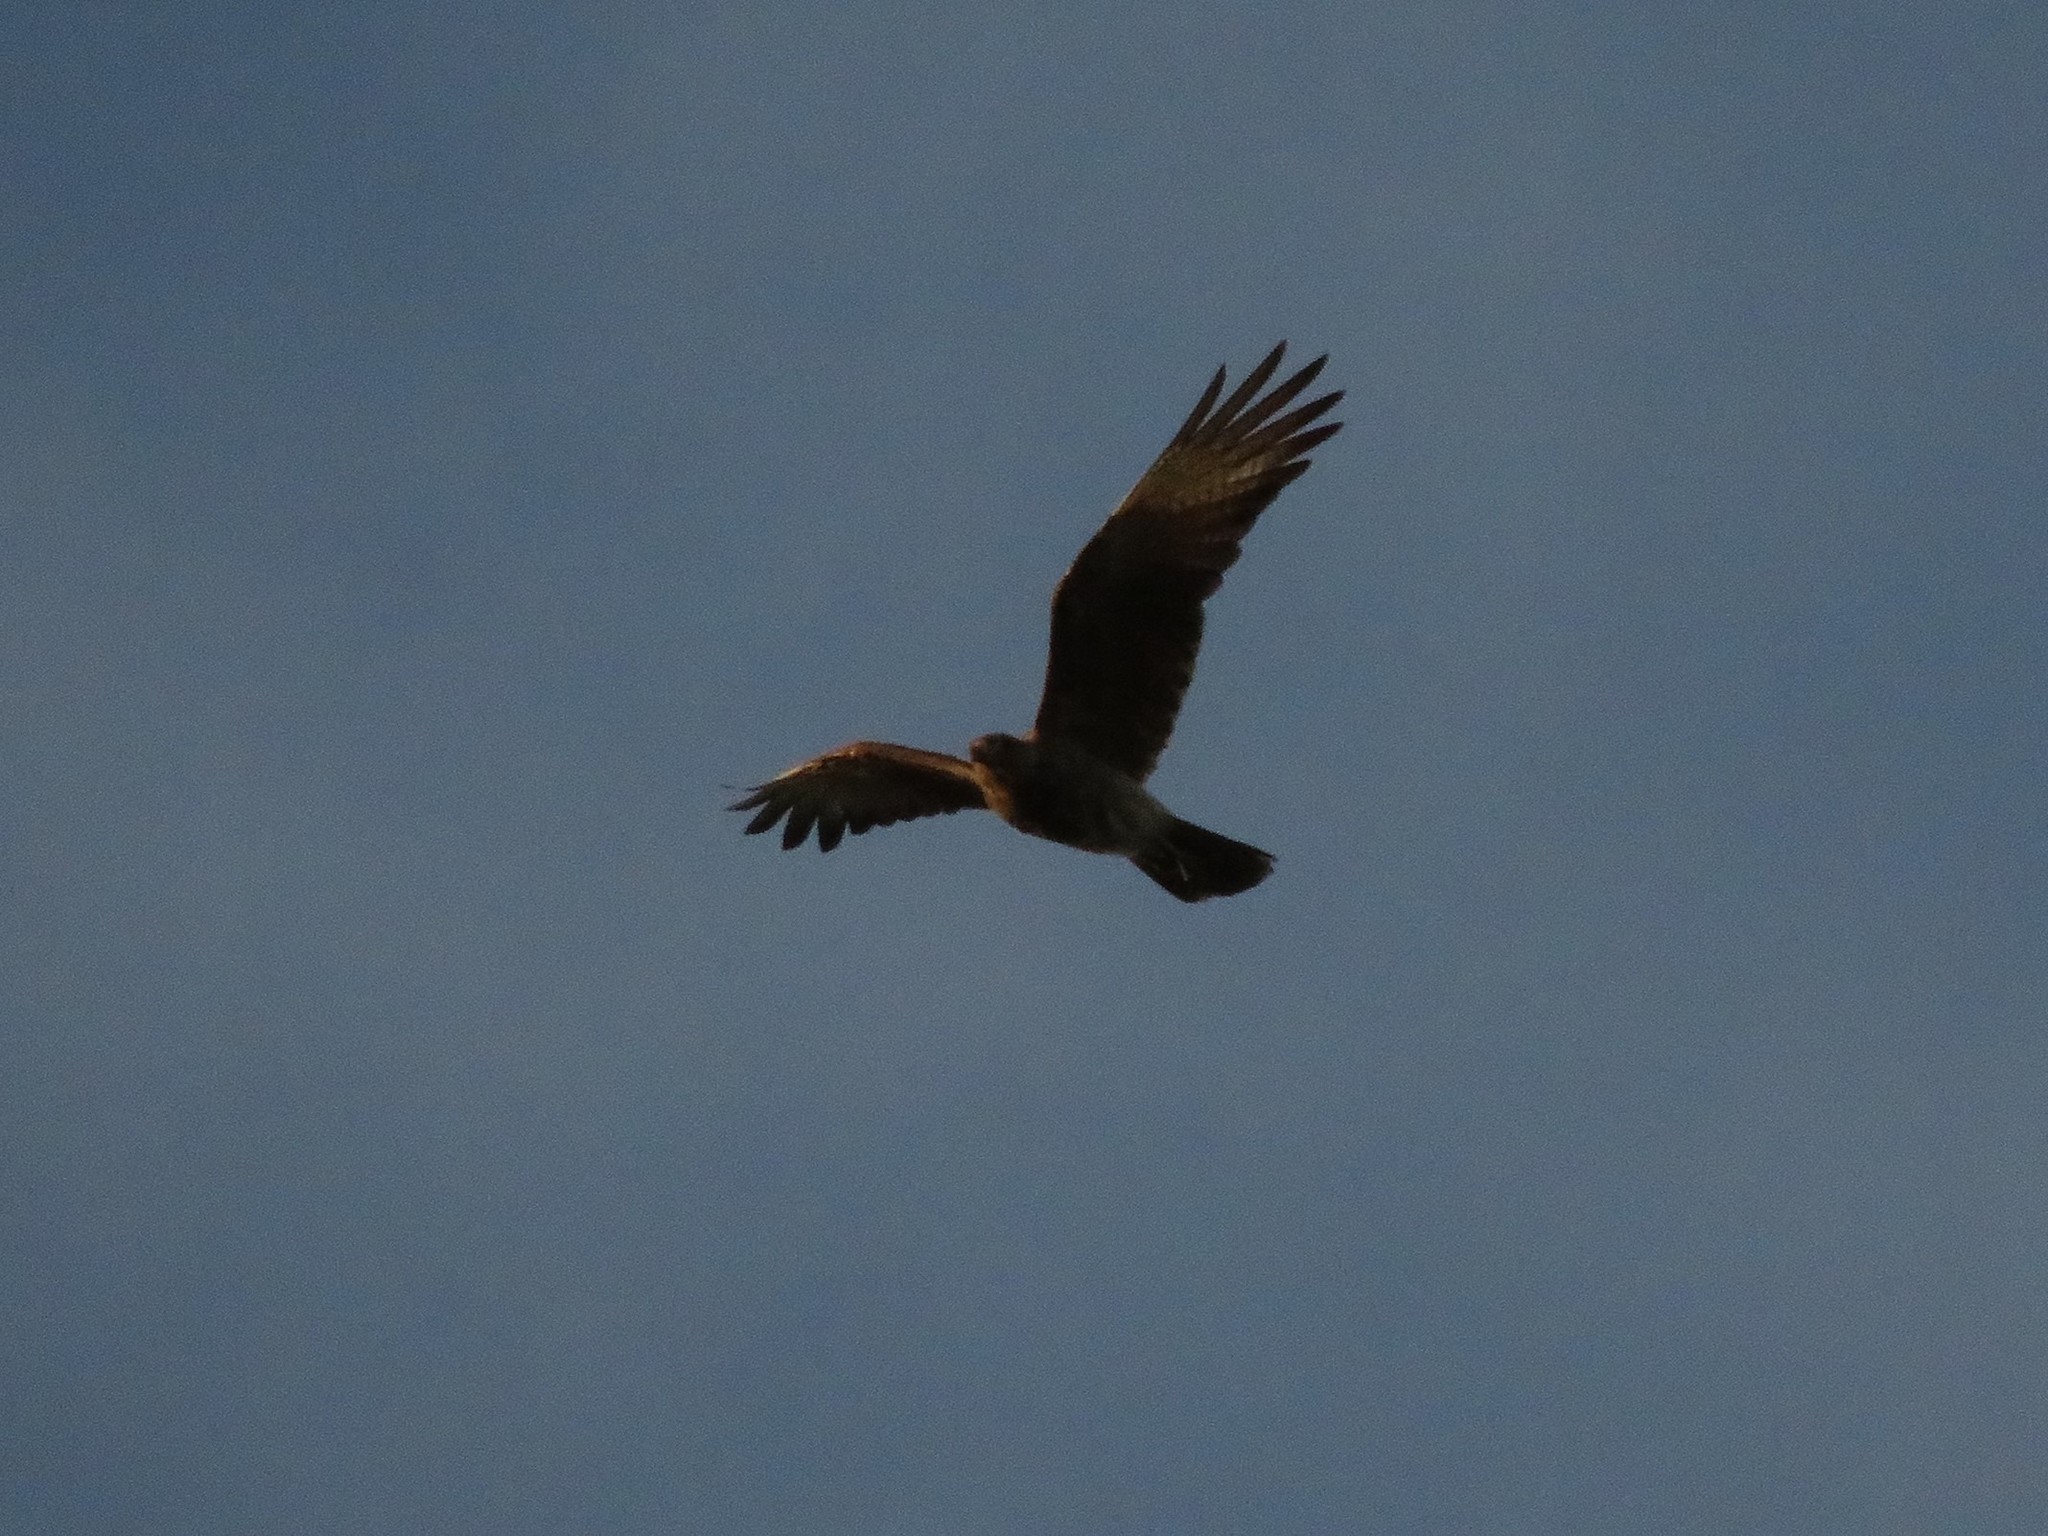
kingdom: Animalia
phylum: Chordata
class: Aves
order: Falconiformes
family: Falconidae
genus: Daptrius
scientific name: Daptrius
